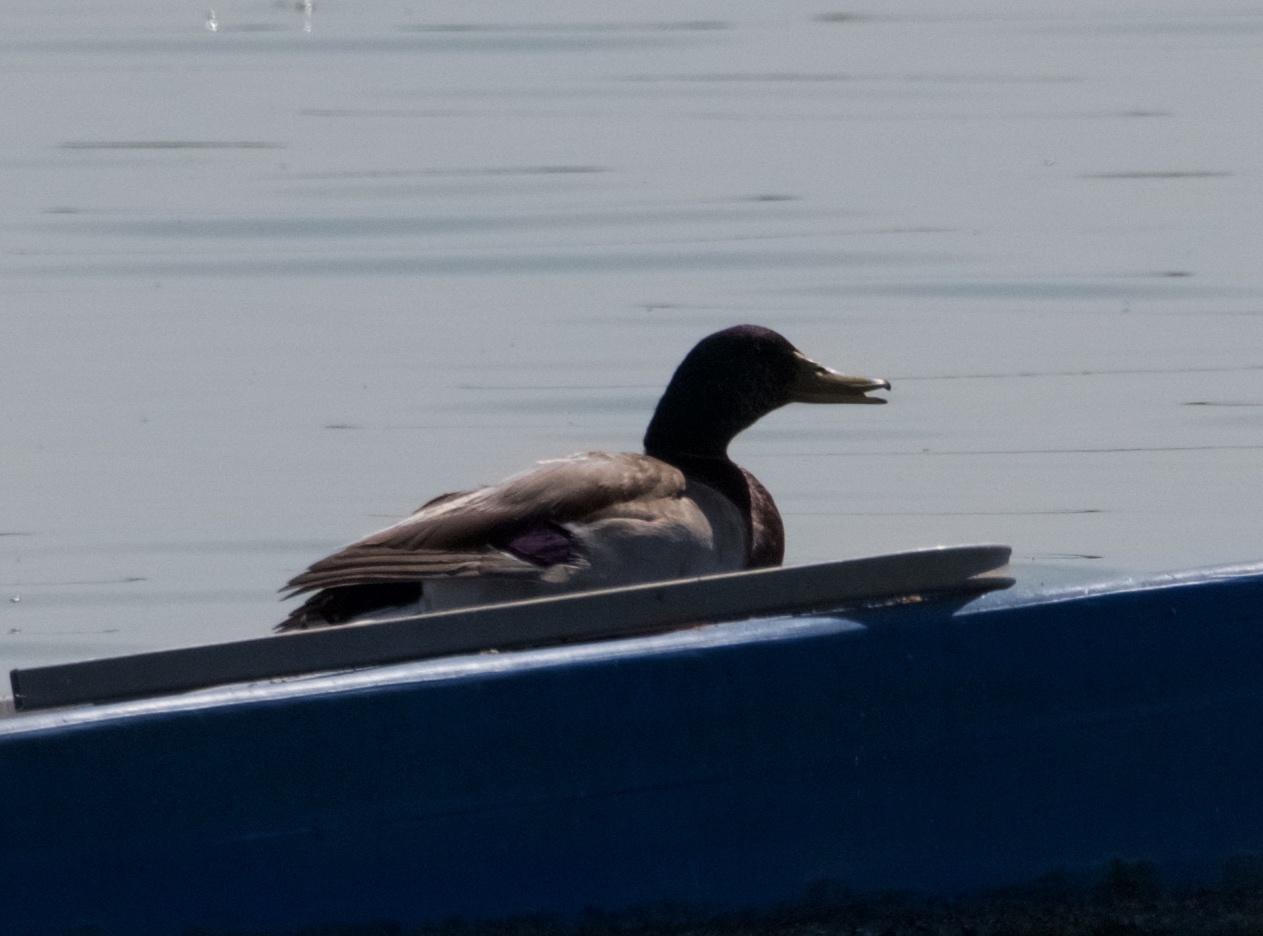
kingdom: Animalia
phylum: Chordata
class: Aves
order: Anseriformes
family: Anatidae
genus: Anas
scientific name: Anas platyrhynchos
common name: Mallard
